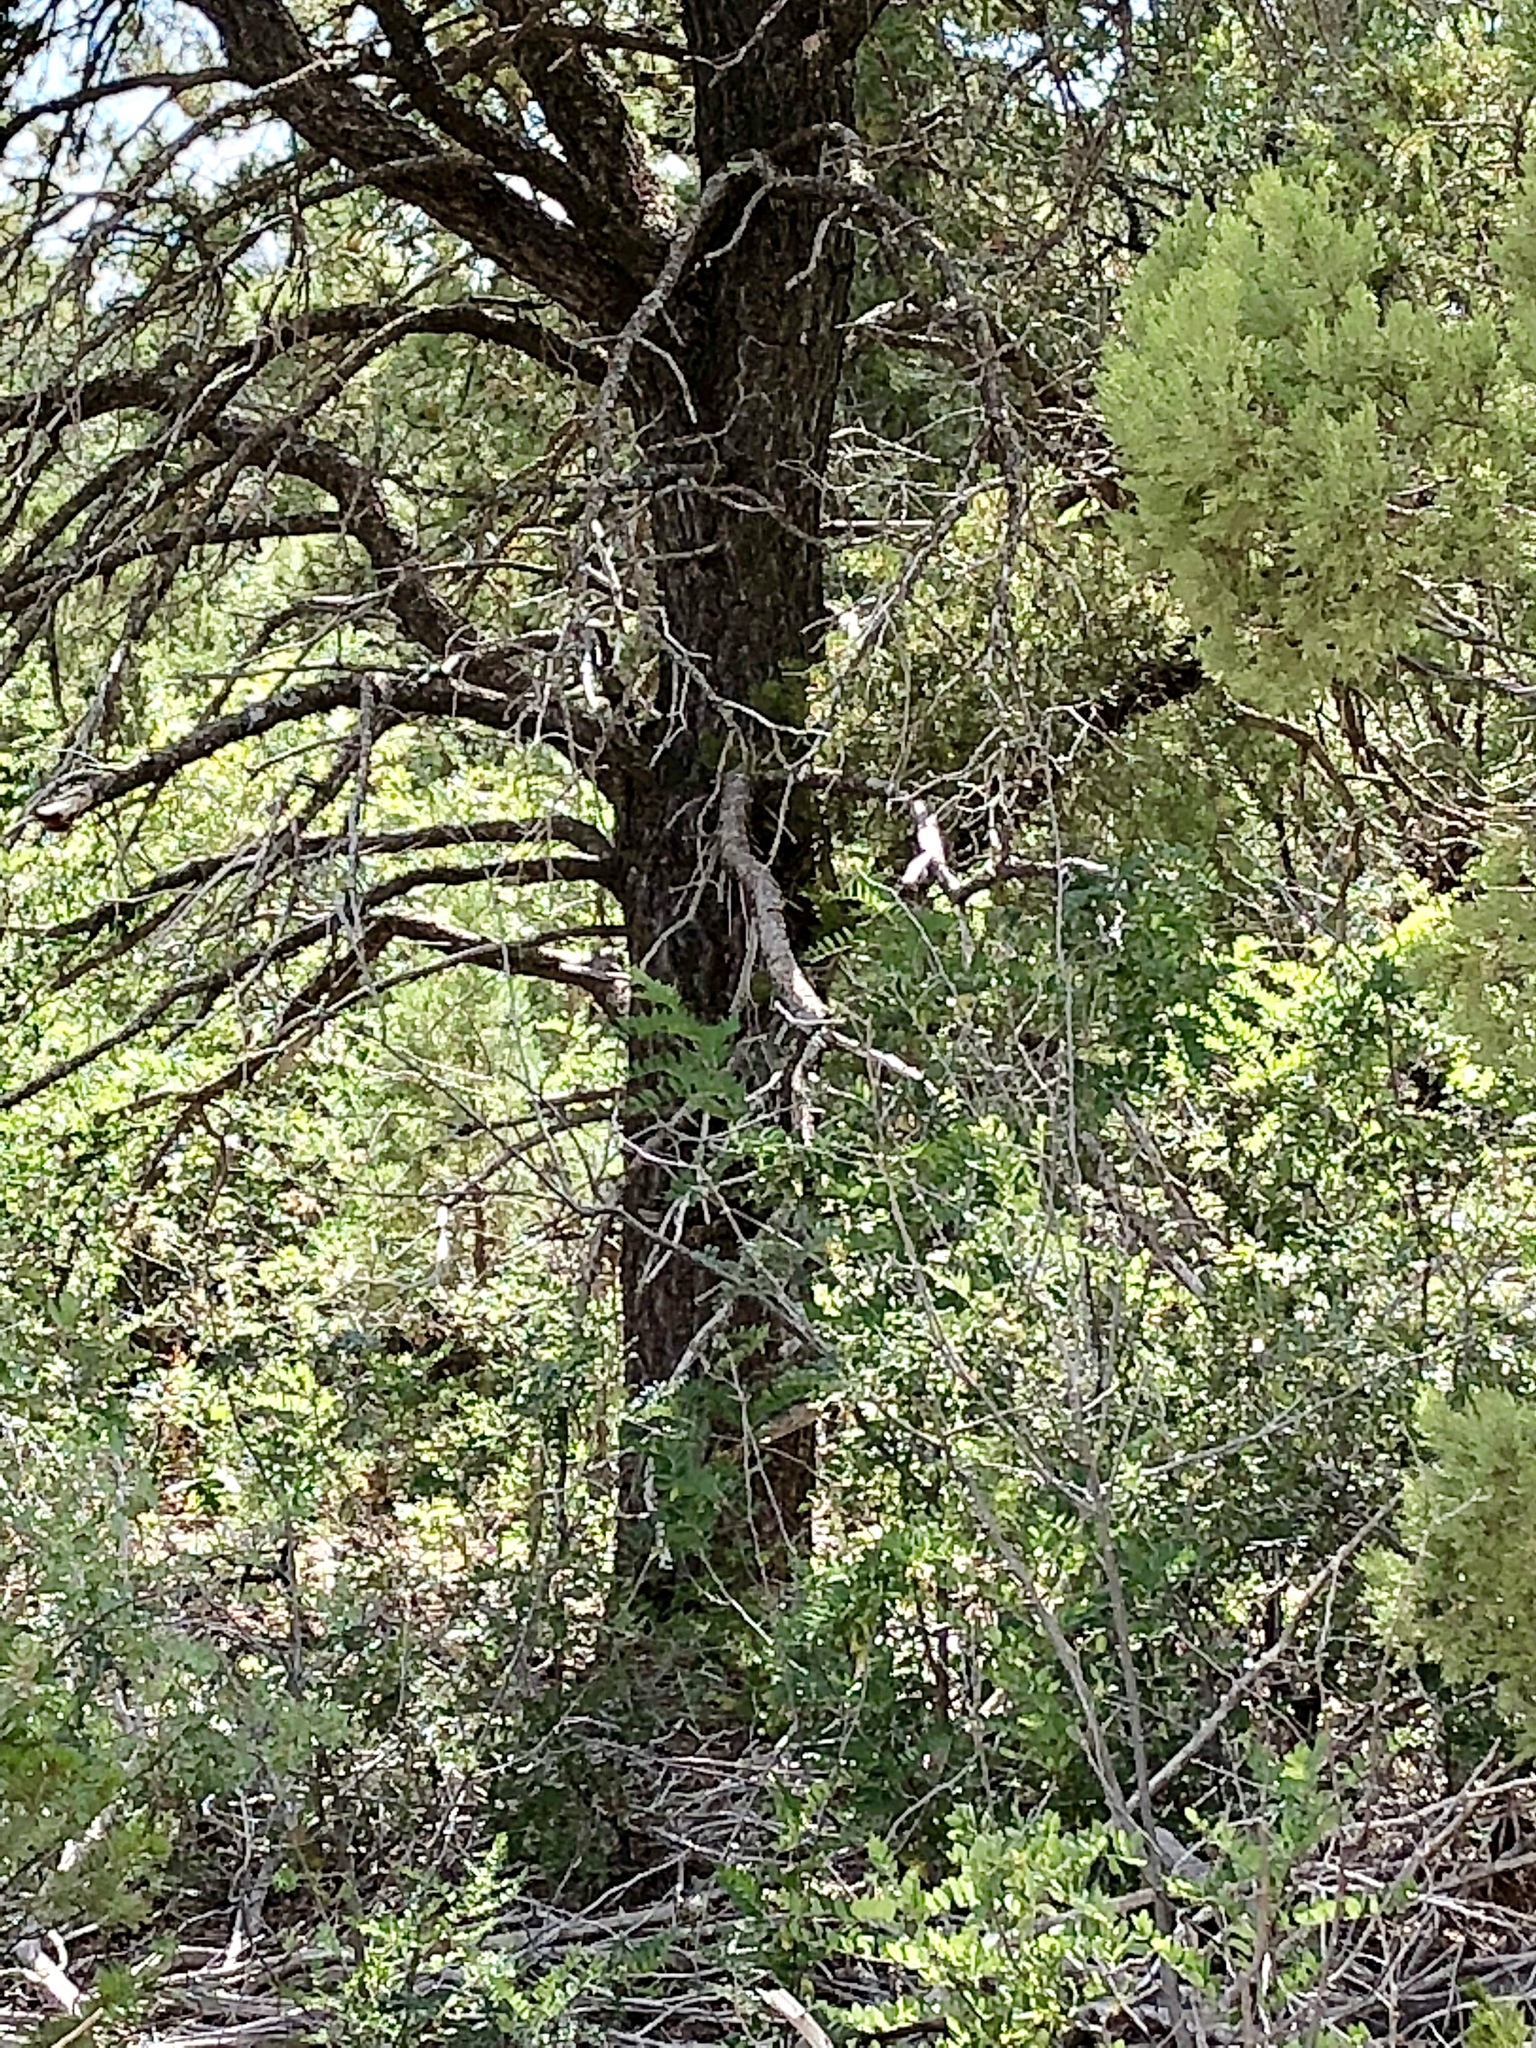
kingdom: Plantae
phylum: Tracheophyta
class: Pinopsida
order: Pinales
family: Pinaceae
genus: Pinus
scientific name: Pinus edulis
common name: Colorado pinyon
